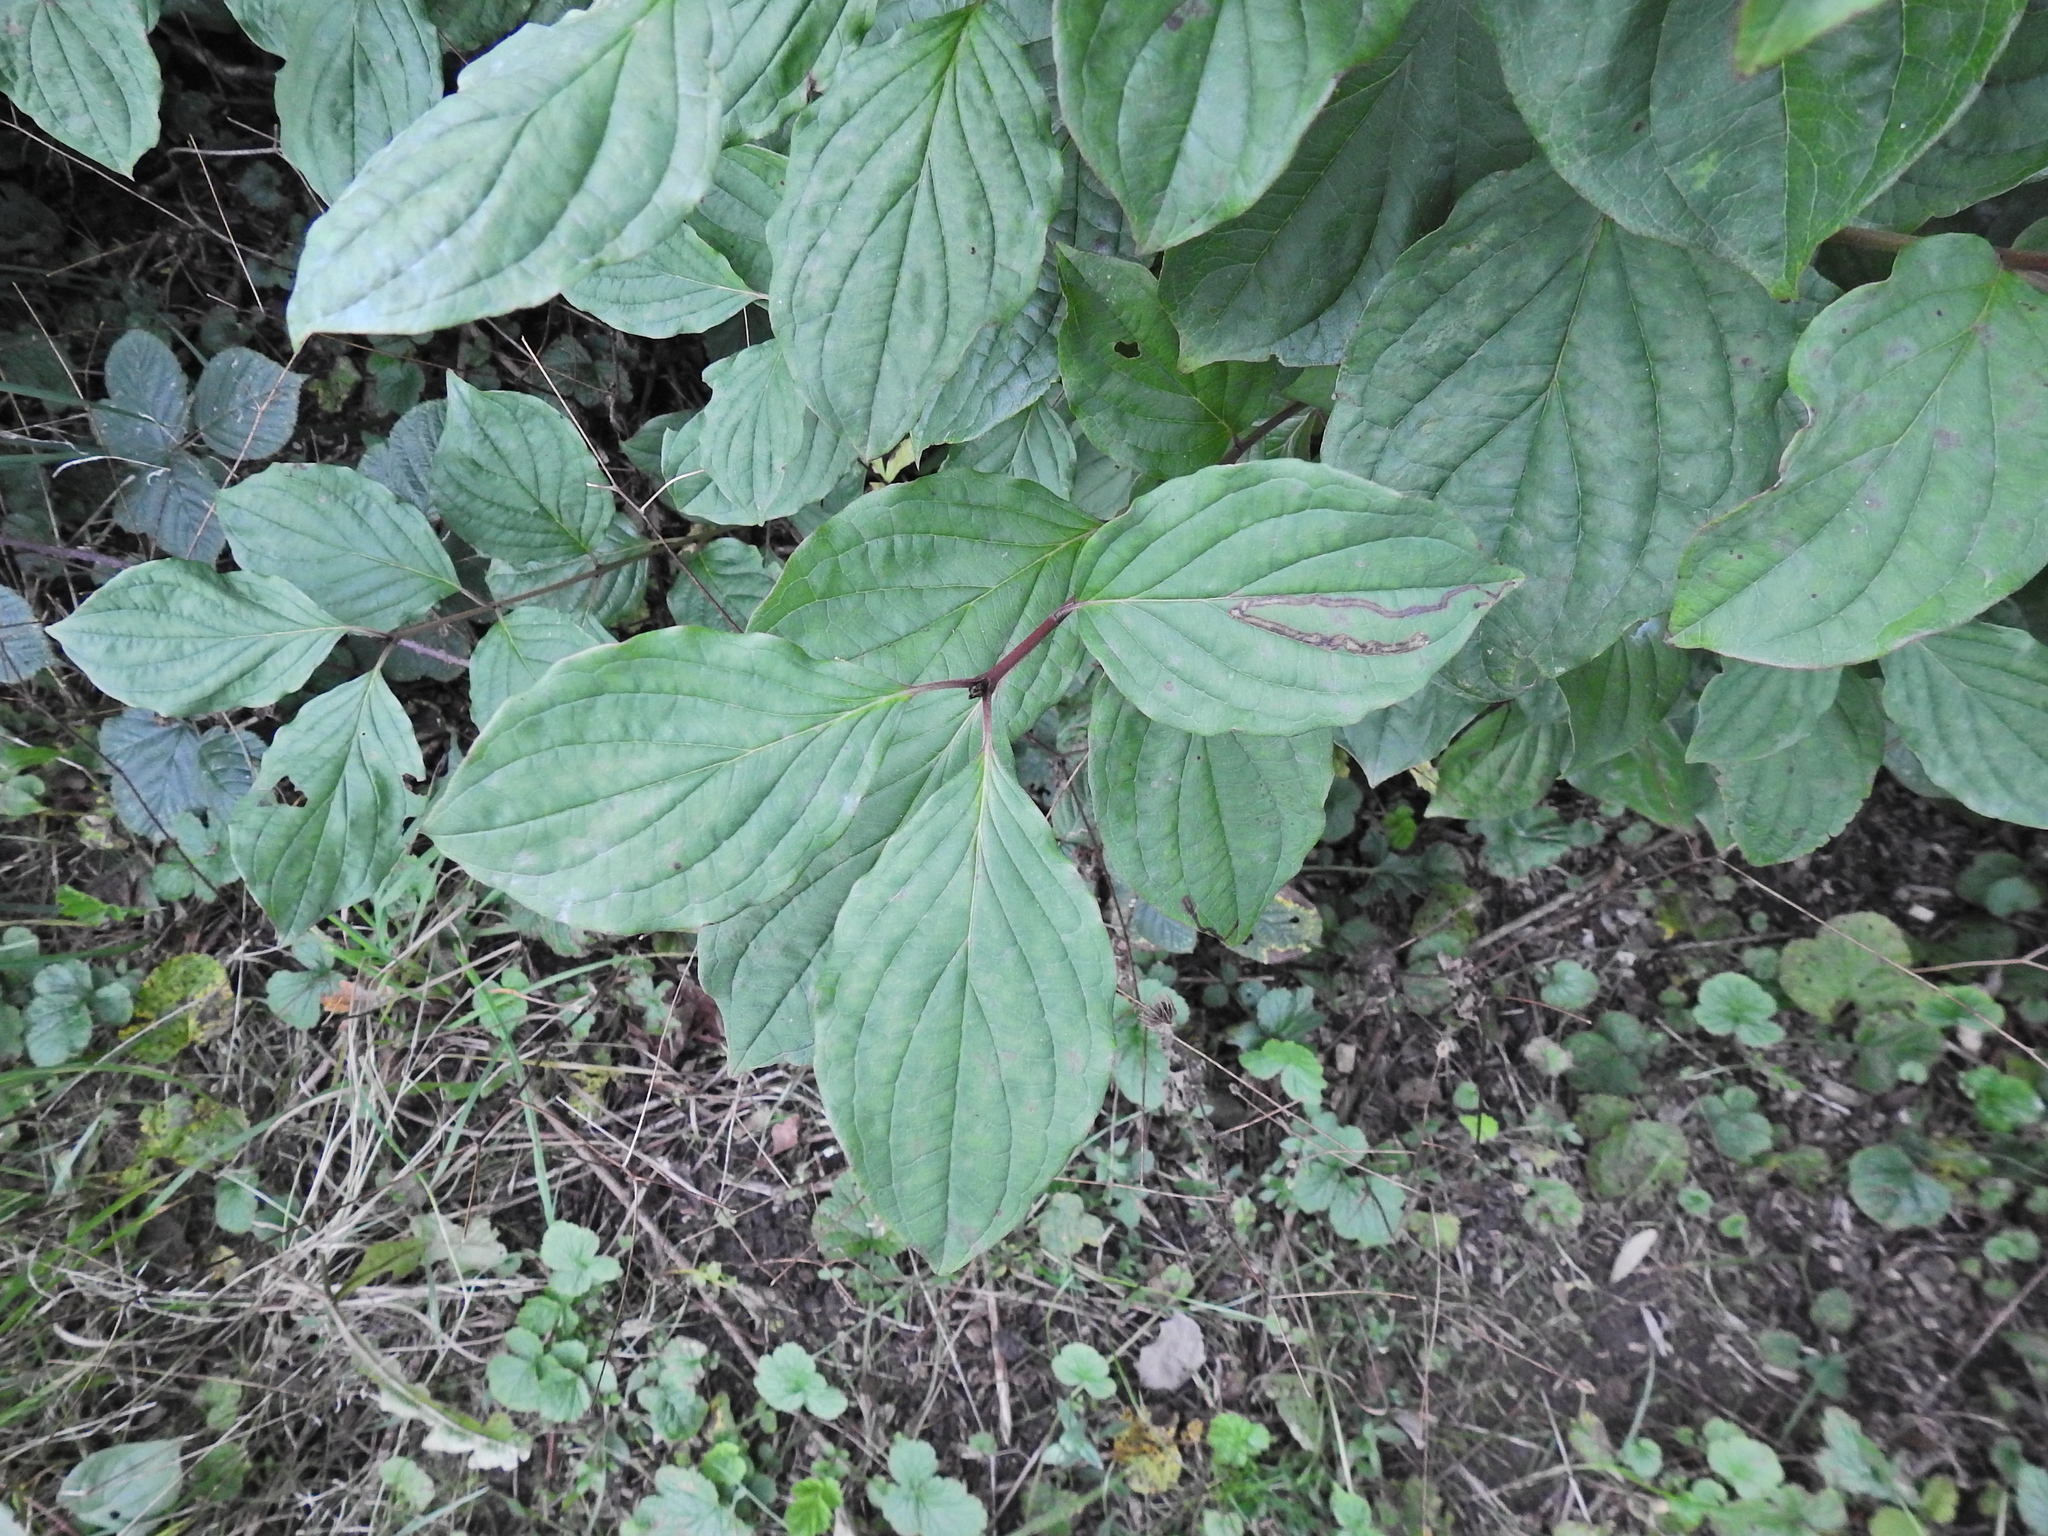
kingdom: Plantae
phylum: Tracheophyta
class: Magnoliopsida
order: Cornales
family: Cornaceae
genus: Cornus
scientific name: Cornus sanguinea
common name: Dogwood
